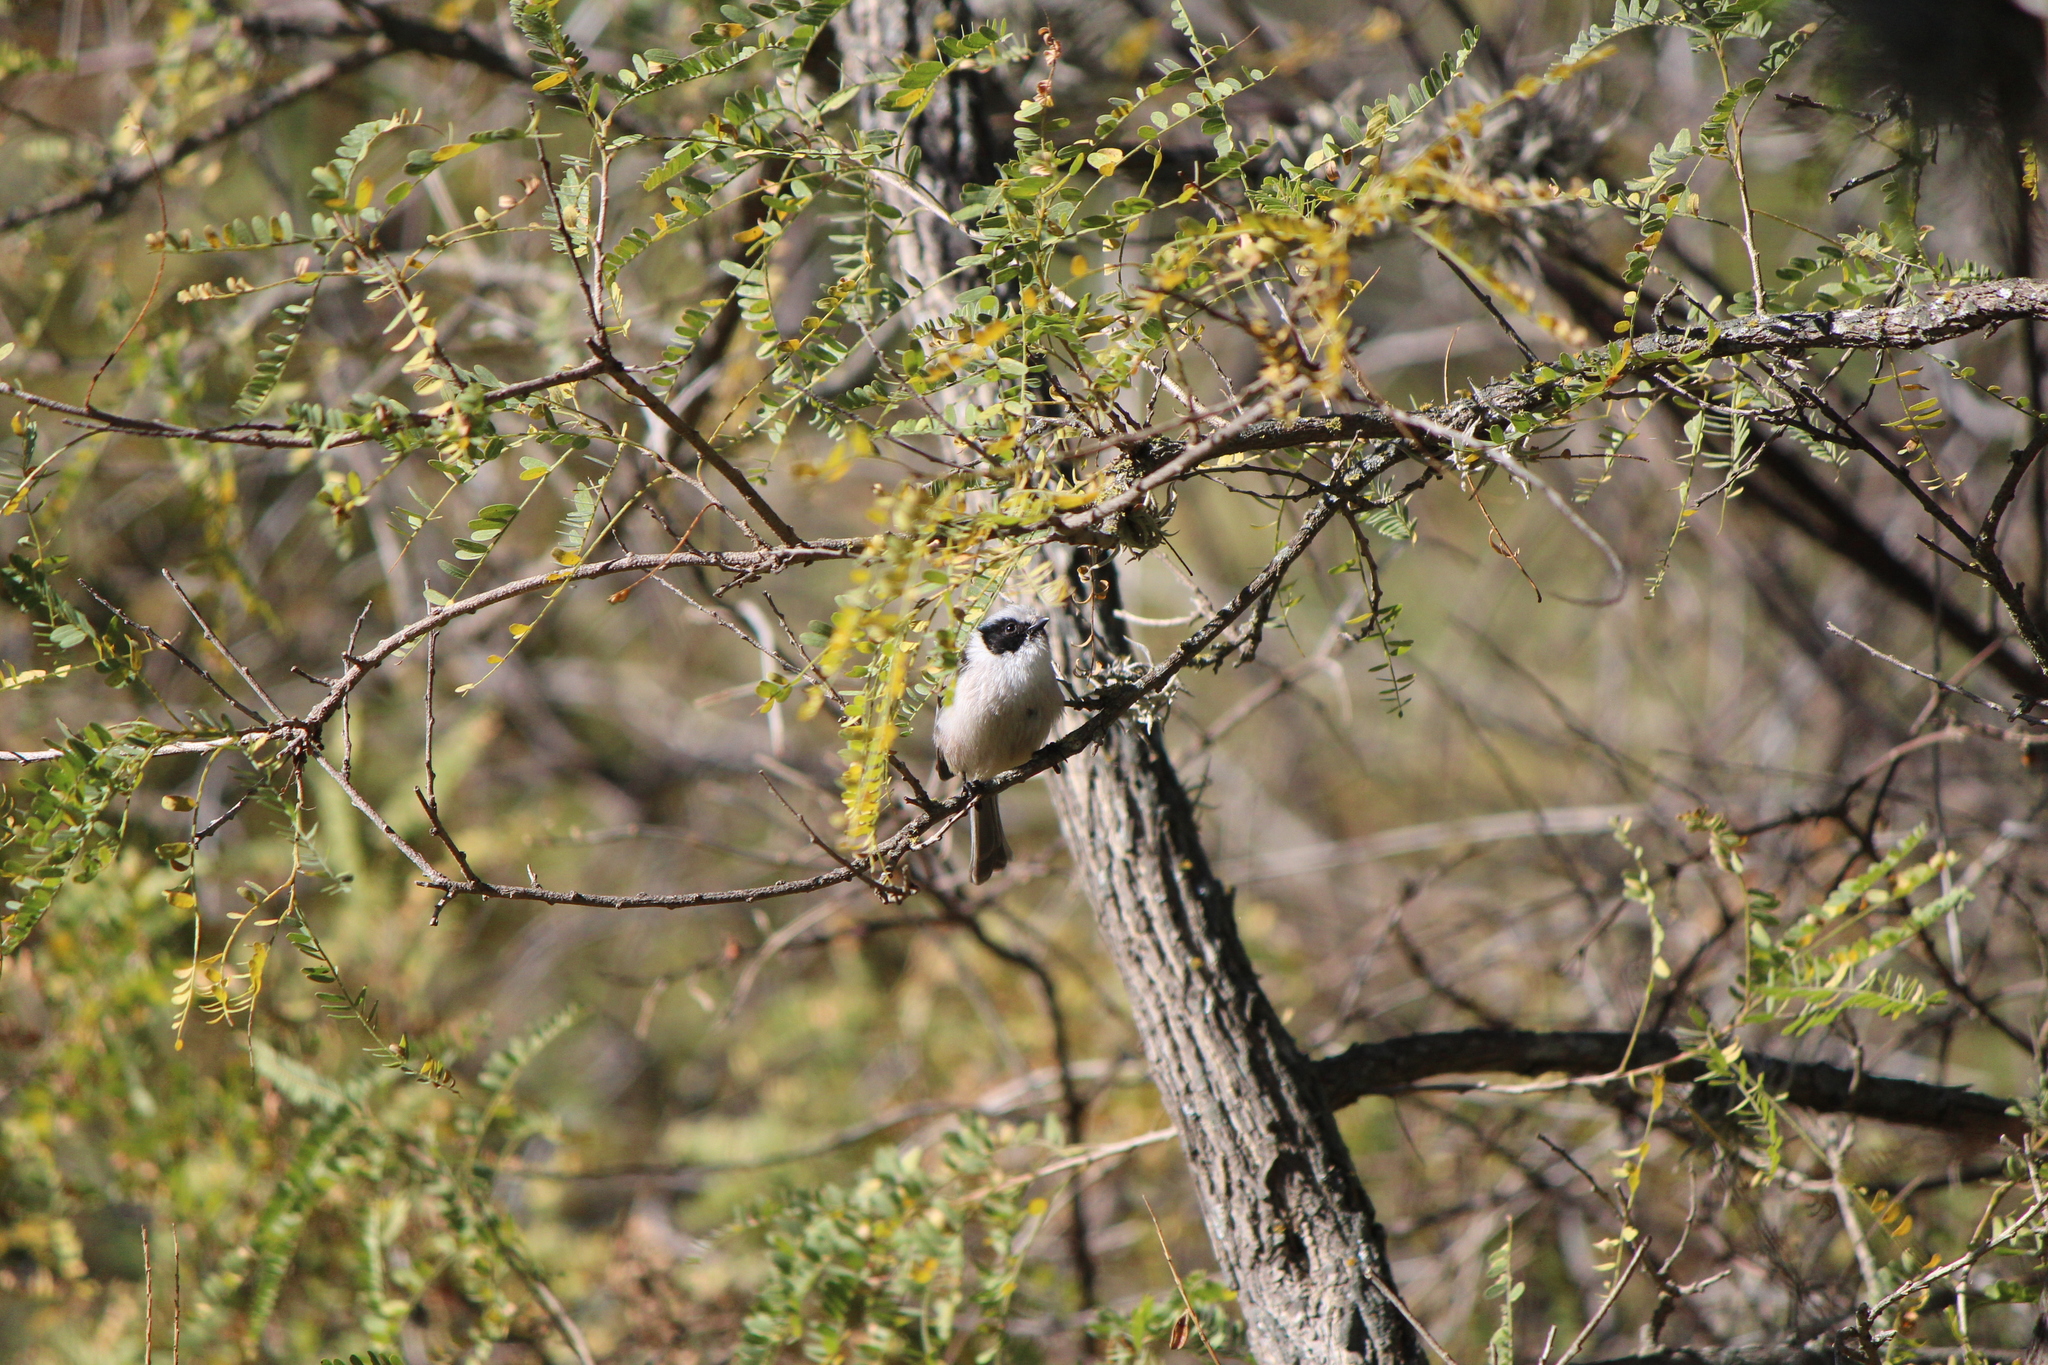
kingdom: Animalia
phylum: Chordata
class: Aves
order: Passeriformes
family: Aegithalidae
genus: Psaltriparus
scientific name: Psaltriparus minimus
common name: American bushtit
